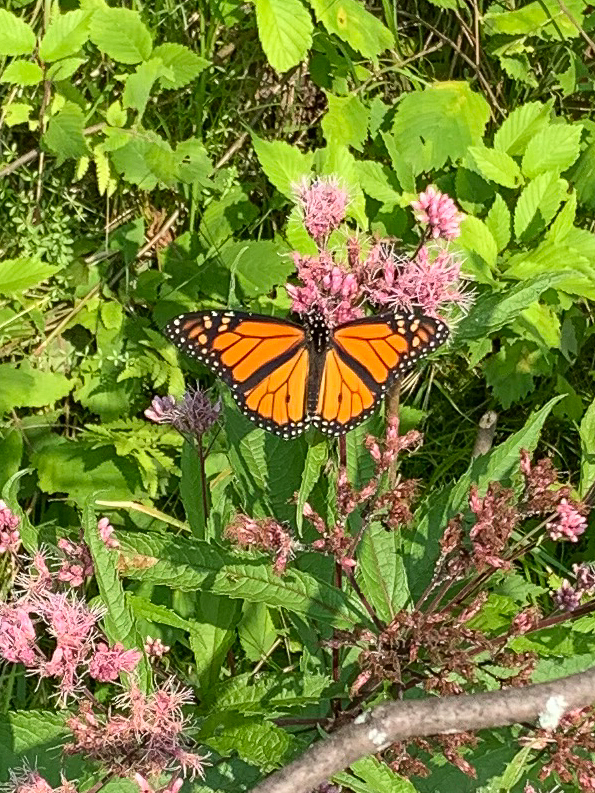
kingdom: Animalia
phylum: Arthropoda
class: Insecta
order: Lepidoptera
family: Nymphalidae
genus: Danaus
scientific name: Danaus plexippus
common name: Monarch
